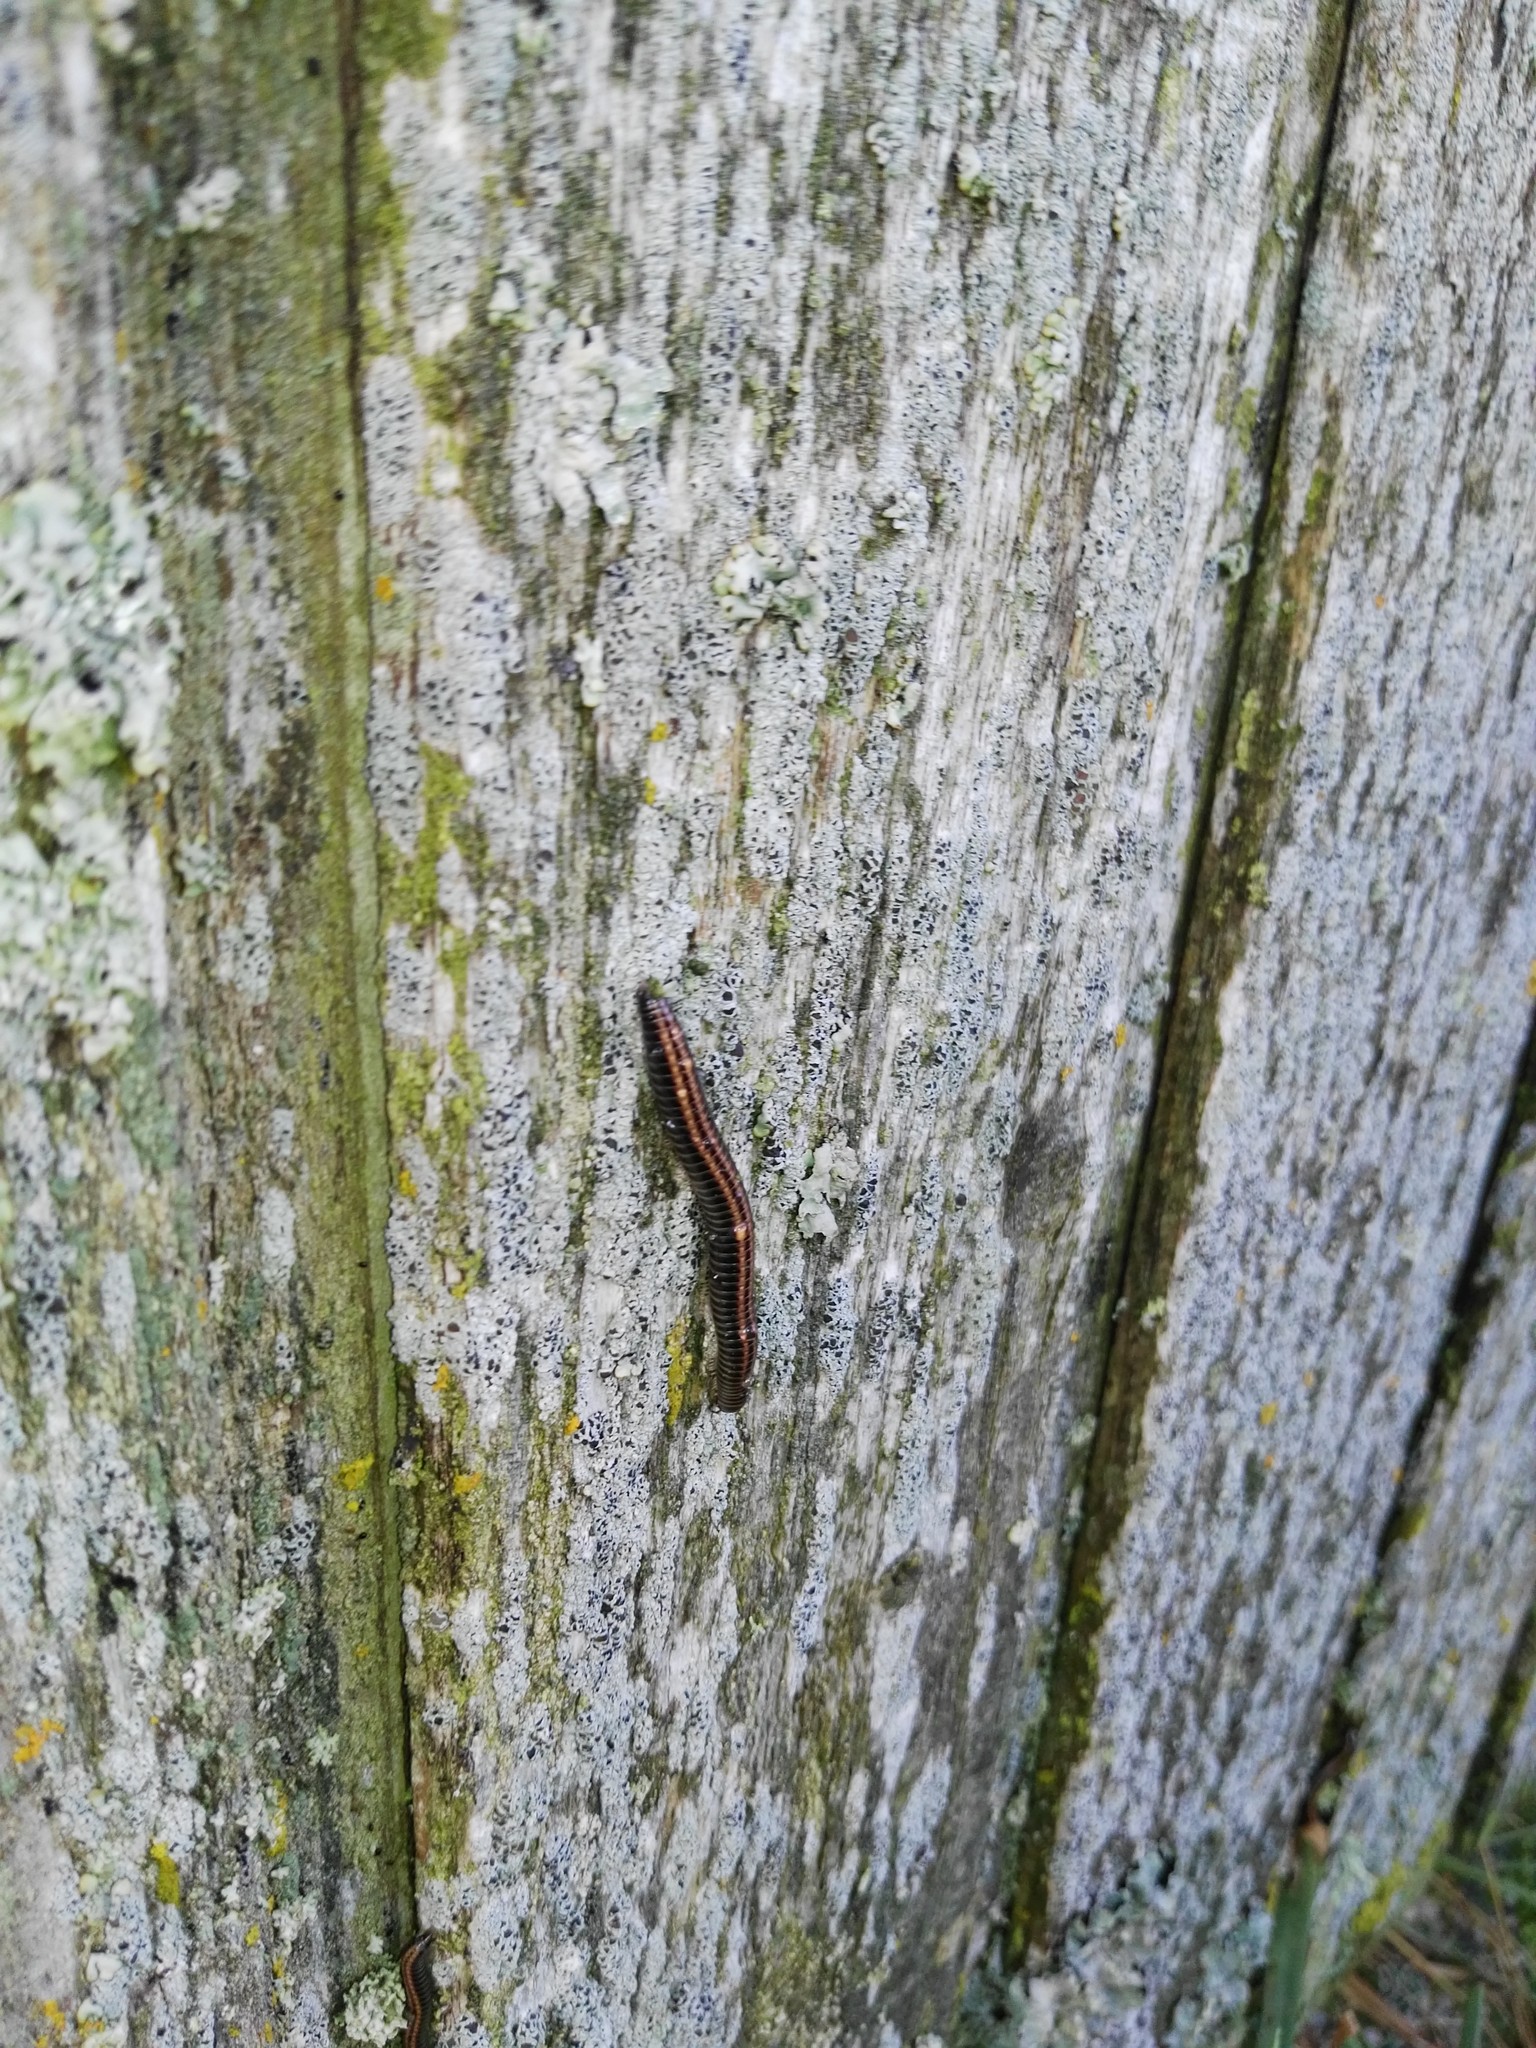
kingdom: Animalia
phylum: Arthropoda
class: Diplopoda
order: Julida
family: Julidae
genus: Ommatoiulus
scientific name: Ommatoiulus sabulosus
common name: Striped millipede
